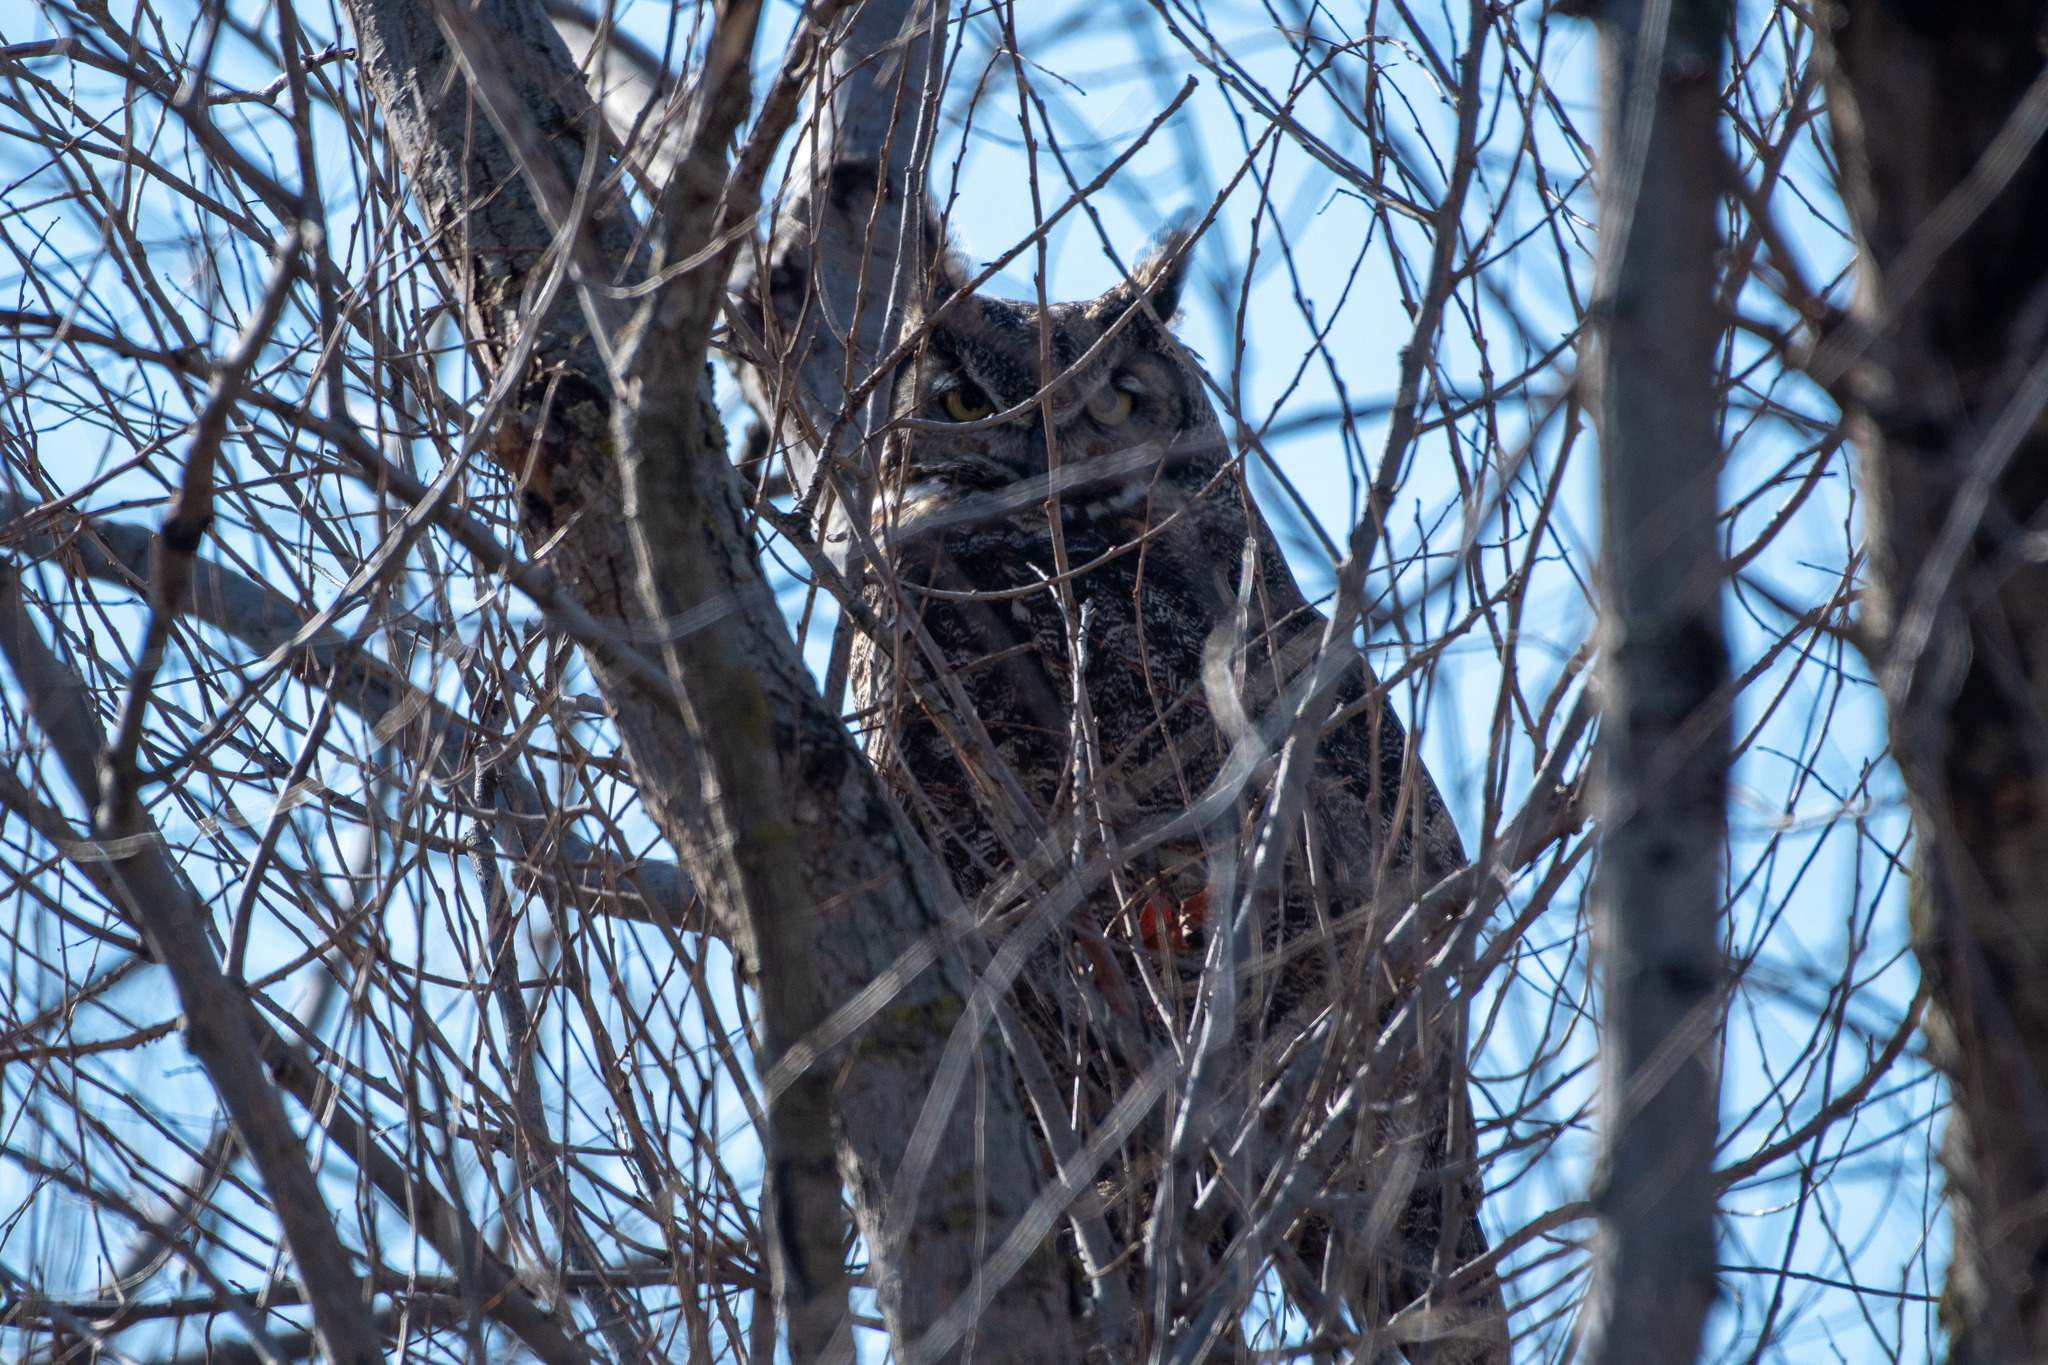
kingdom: Animalia
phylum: Chordata
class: Aves
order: Strigiformes
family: Strigidae
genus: Bubo
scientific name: Bubo virginianus
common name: Great horned owl
